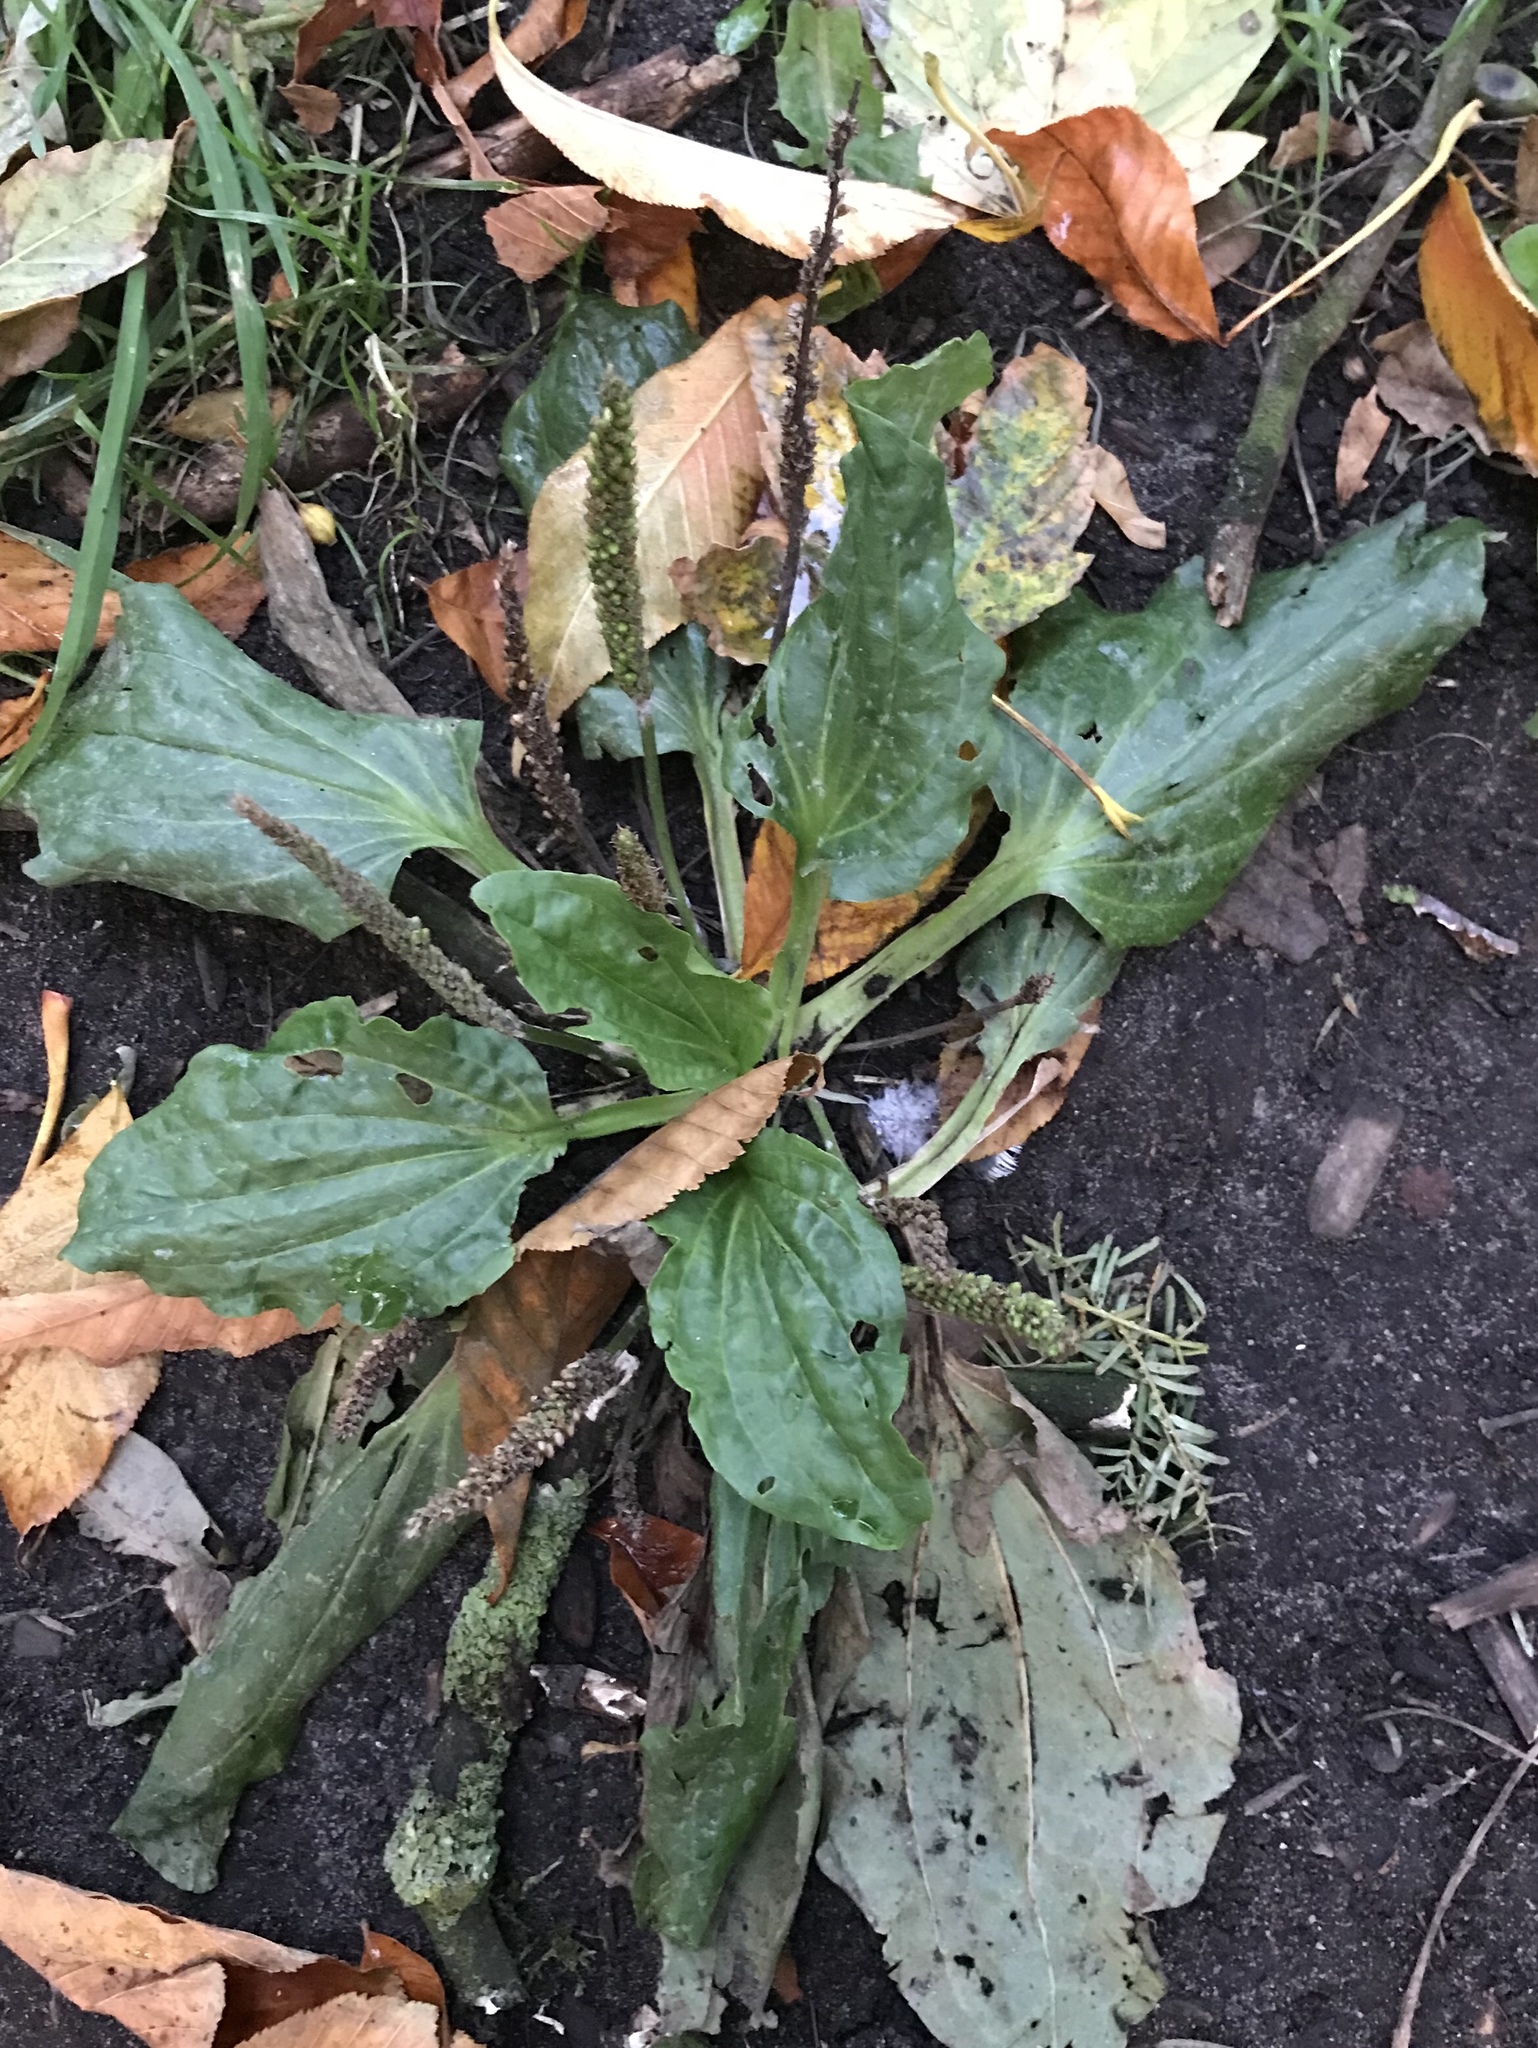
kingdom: Plantae
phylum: Tracheophyta
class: Magnoliopsida
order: Lamiales
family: Plantaginaceae
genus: Plantago
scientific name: Plantago major
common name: Common plantain
